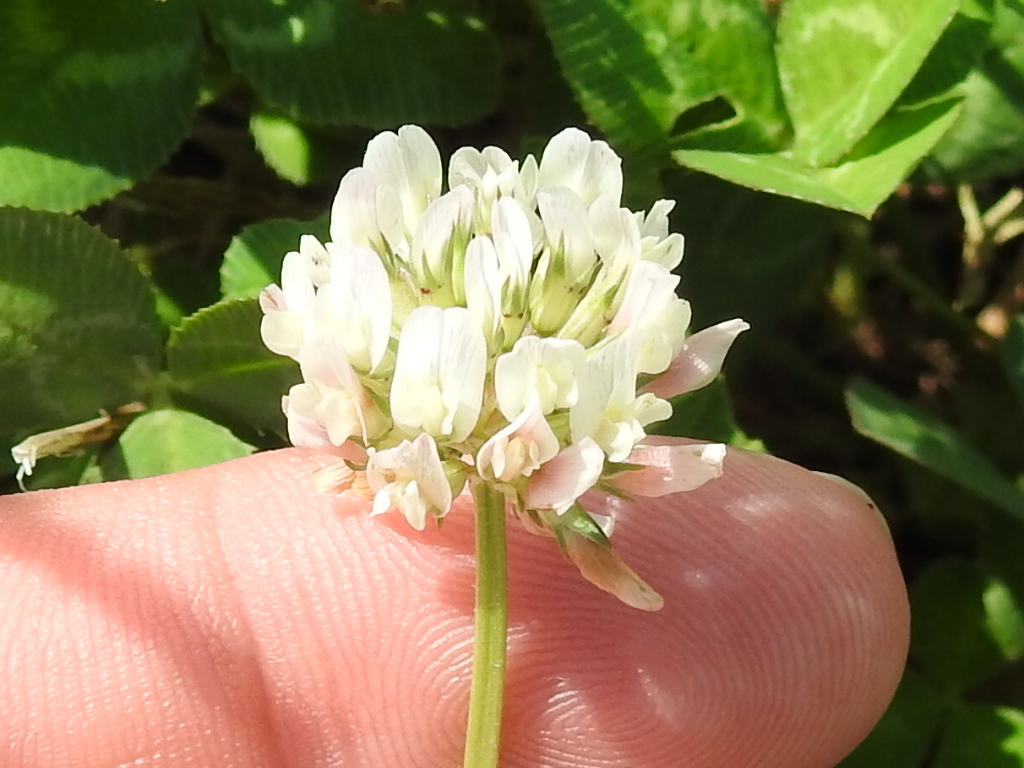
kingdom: Plantae
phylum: Tracheophyta
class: Magnoliopsida
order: Fabales
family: Fabaceae
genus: Trifolium
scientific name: Trifolium repens
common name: White clover
